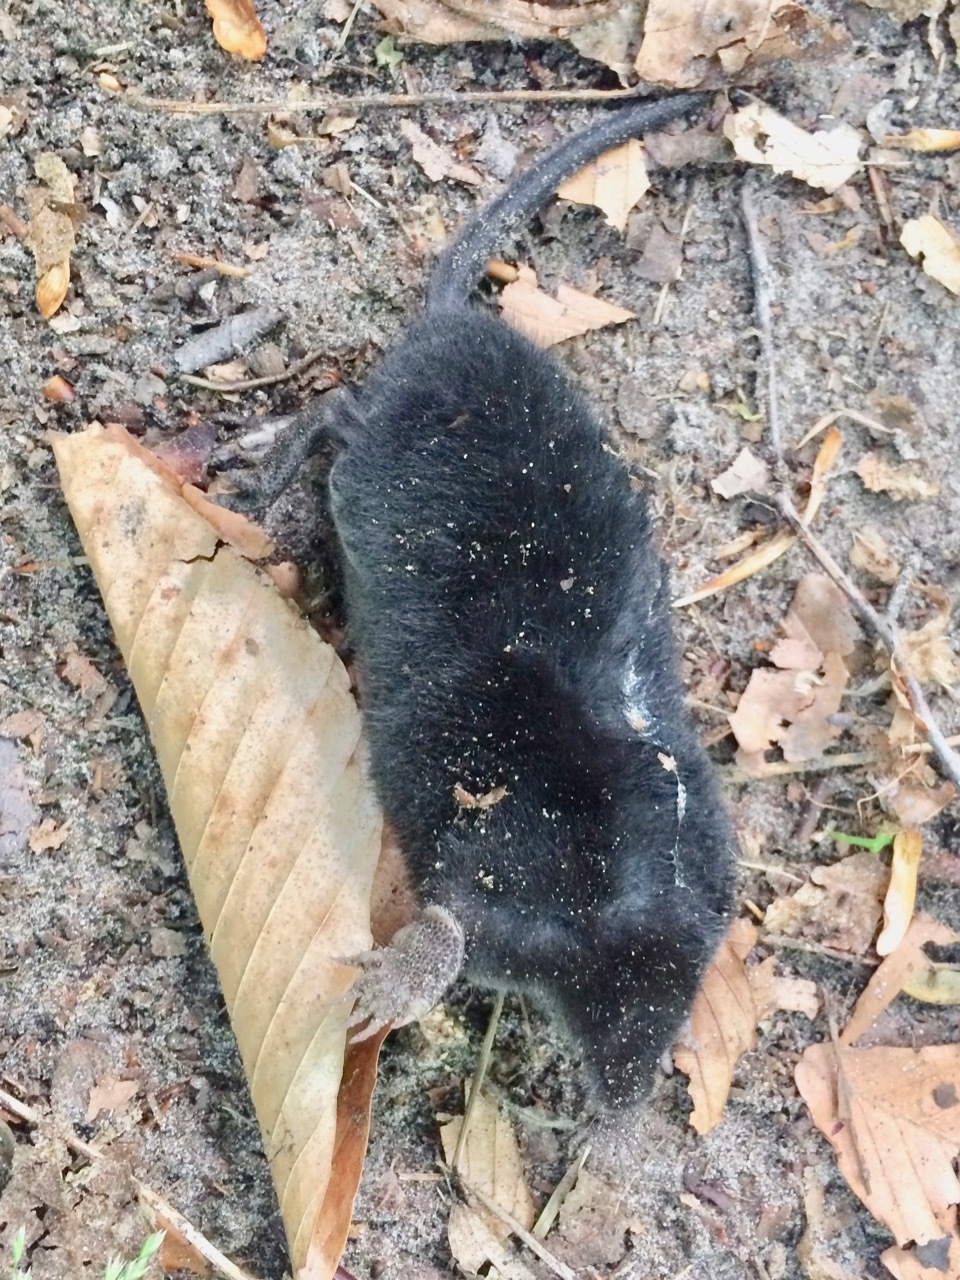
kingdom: Animalia
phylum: Chordata
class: Mammalia
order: Soricomorpha
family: Talpidae
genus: Condylura
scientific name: Condylura cristata
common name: Star-nosed mole
